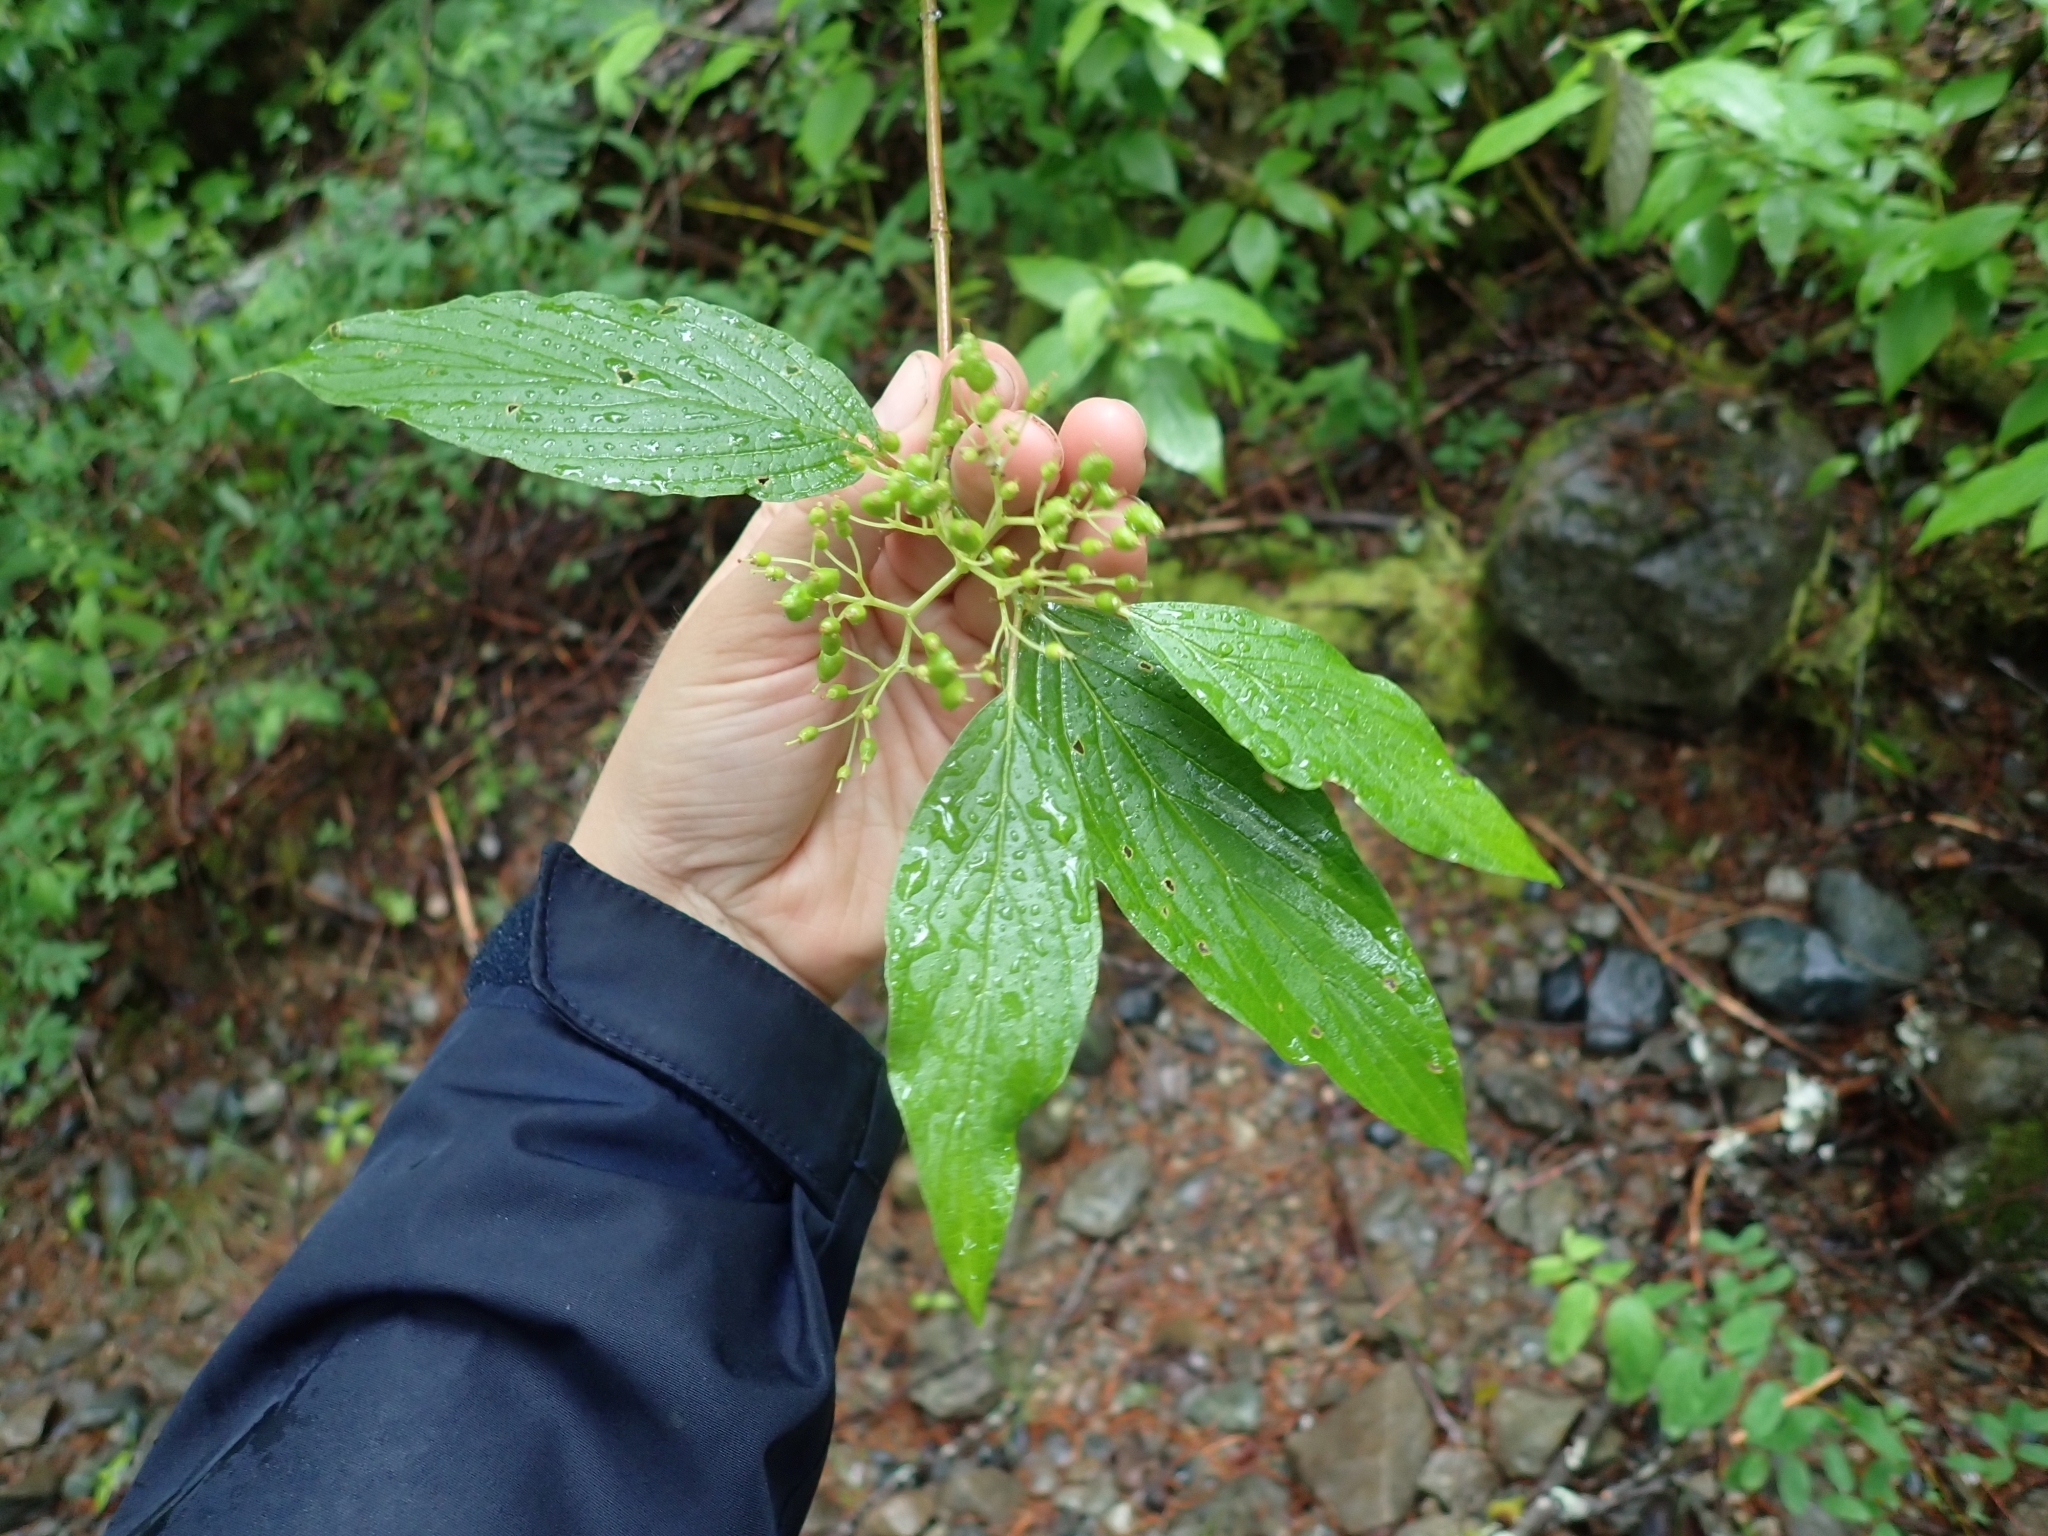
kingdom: Plantae
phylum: Tracheophyta
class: Magnoliopsida
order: Cornales
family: Cornaceae
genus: Cornus
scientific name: Cornus sericea
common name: Red-osier dogwood
